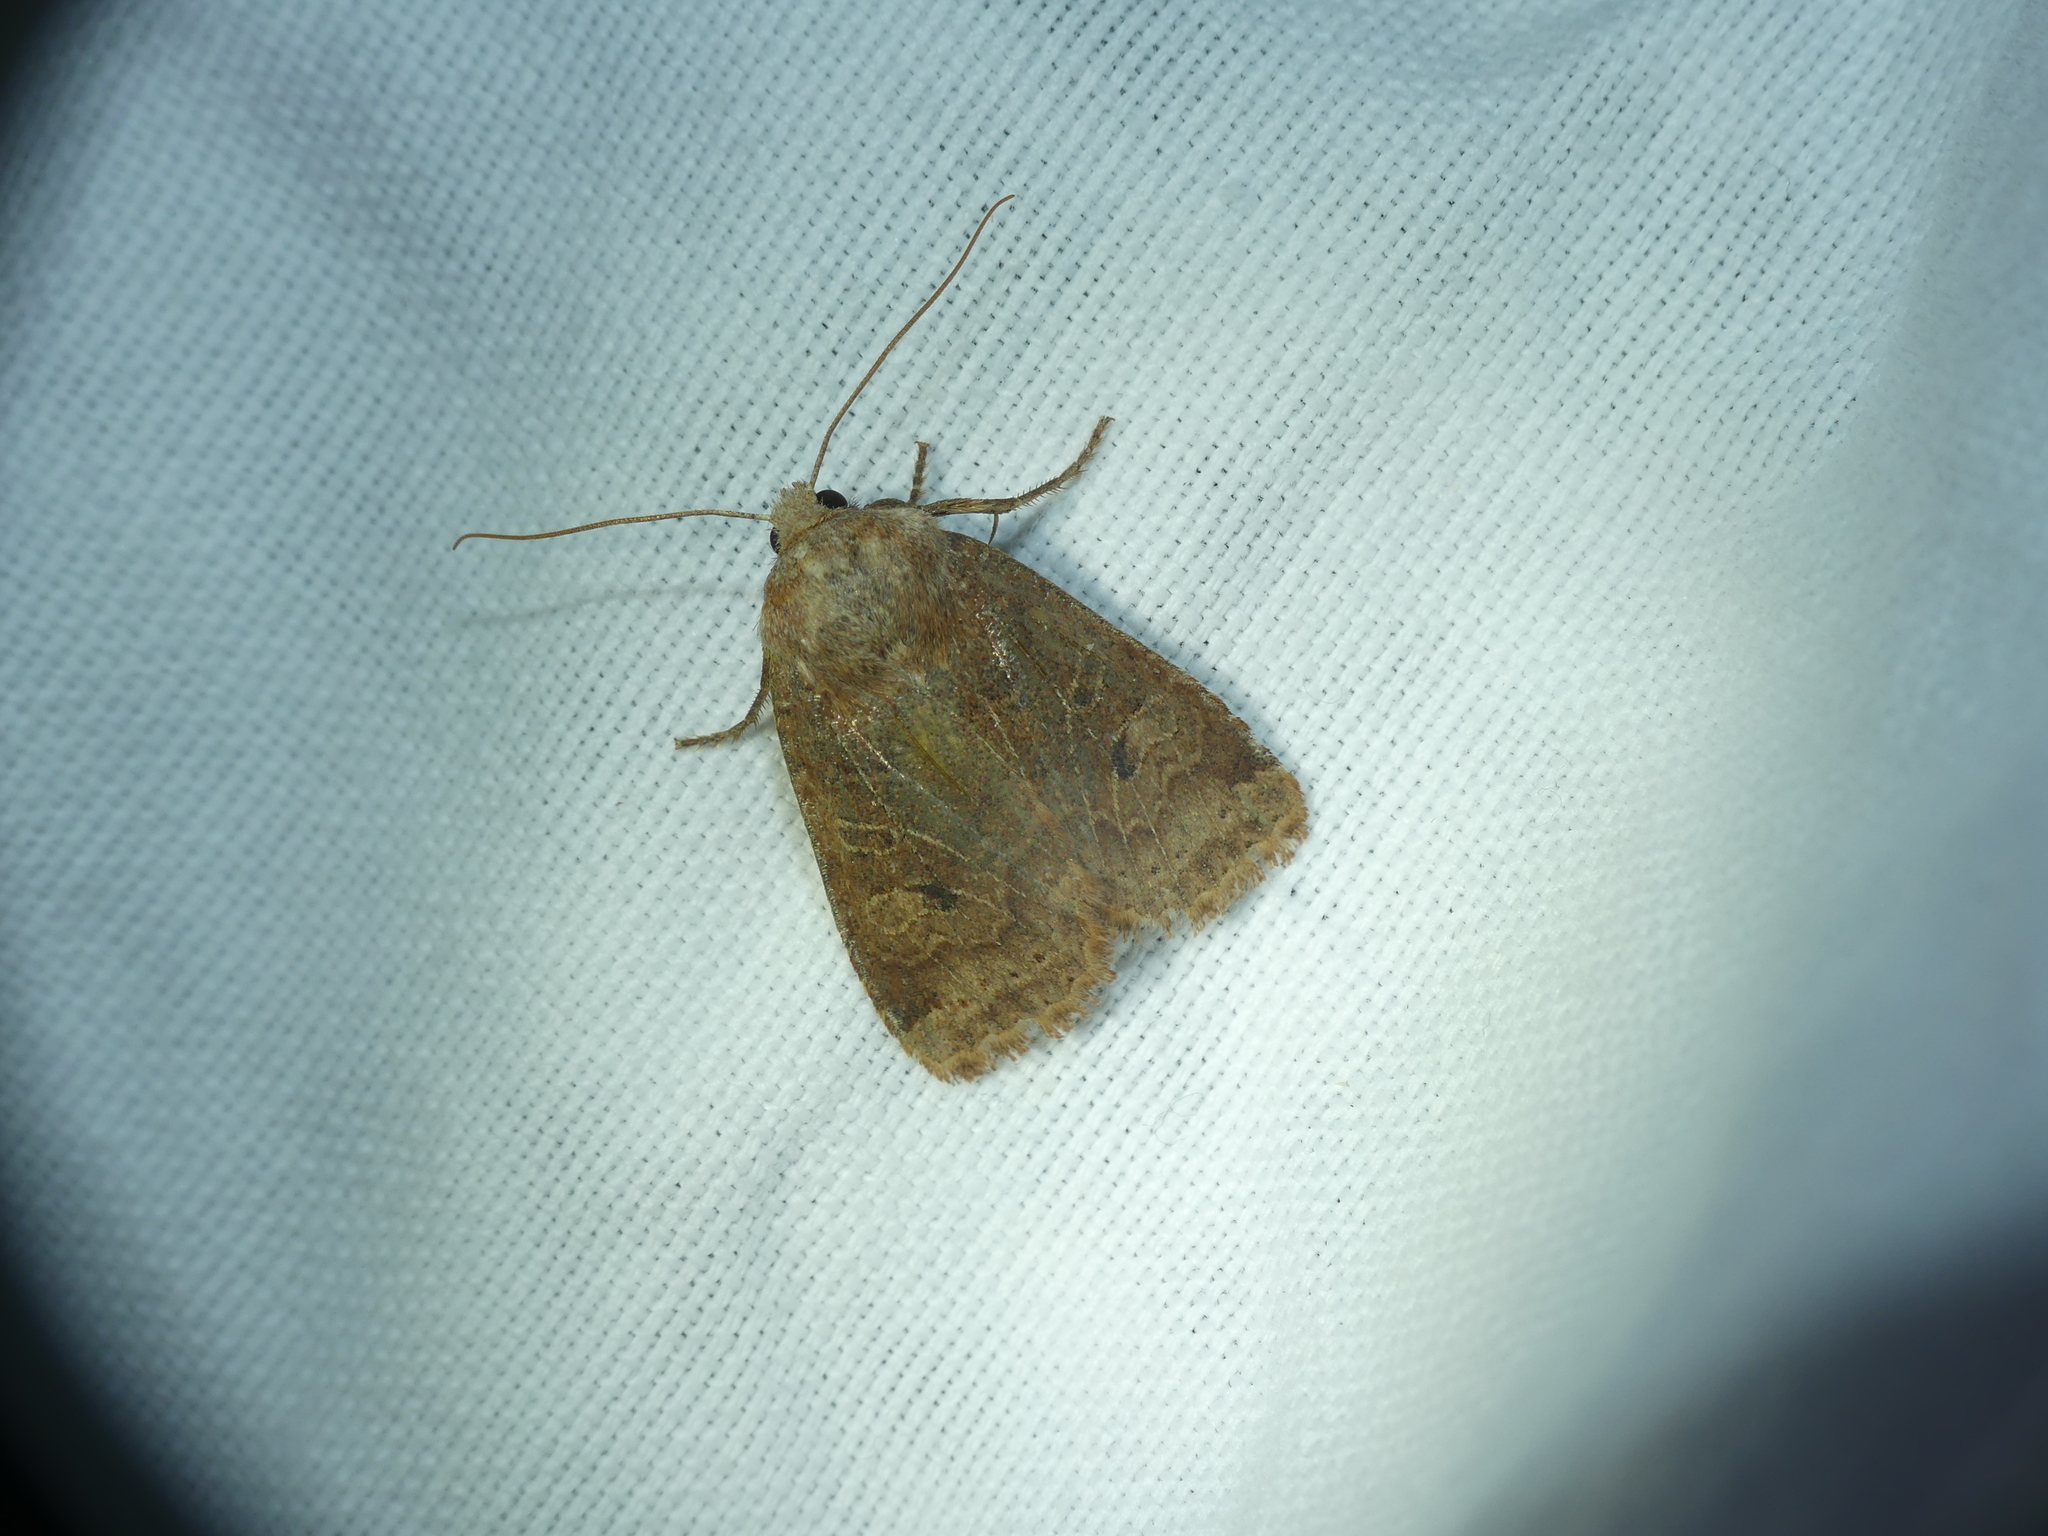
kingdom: Animalia
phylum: Arthropoda
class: Insecta
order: Lepidoptera
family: Noctuidae
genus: Orthosia
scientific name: Orthosia cerasi
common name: Common quaker
